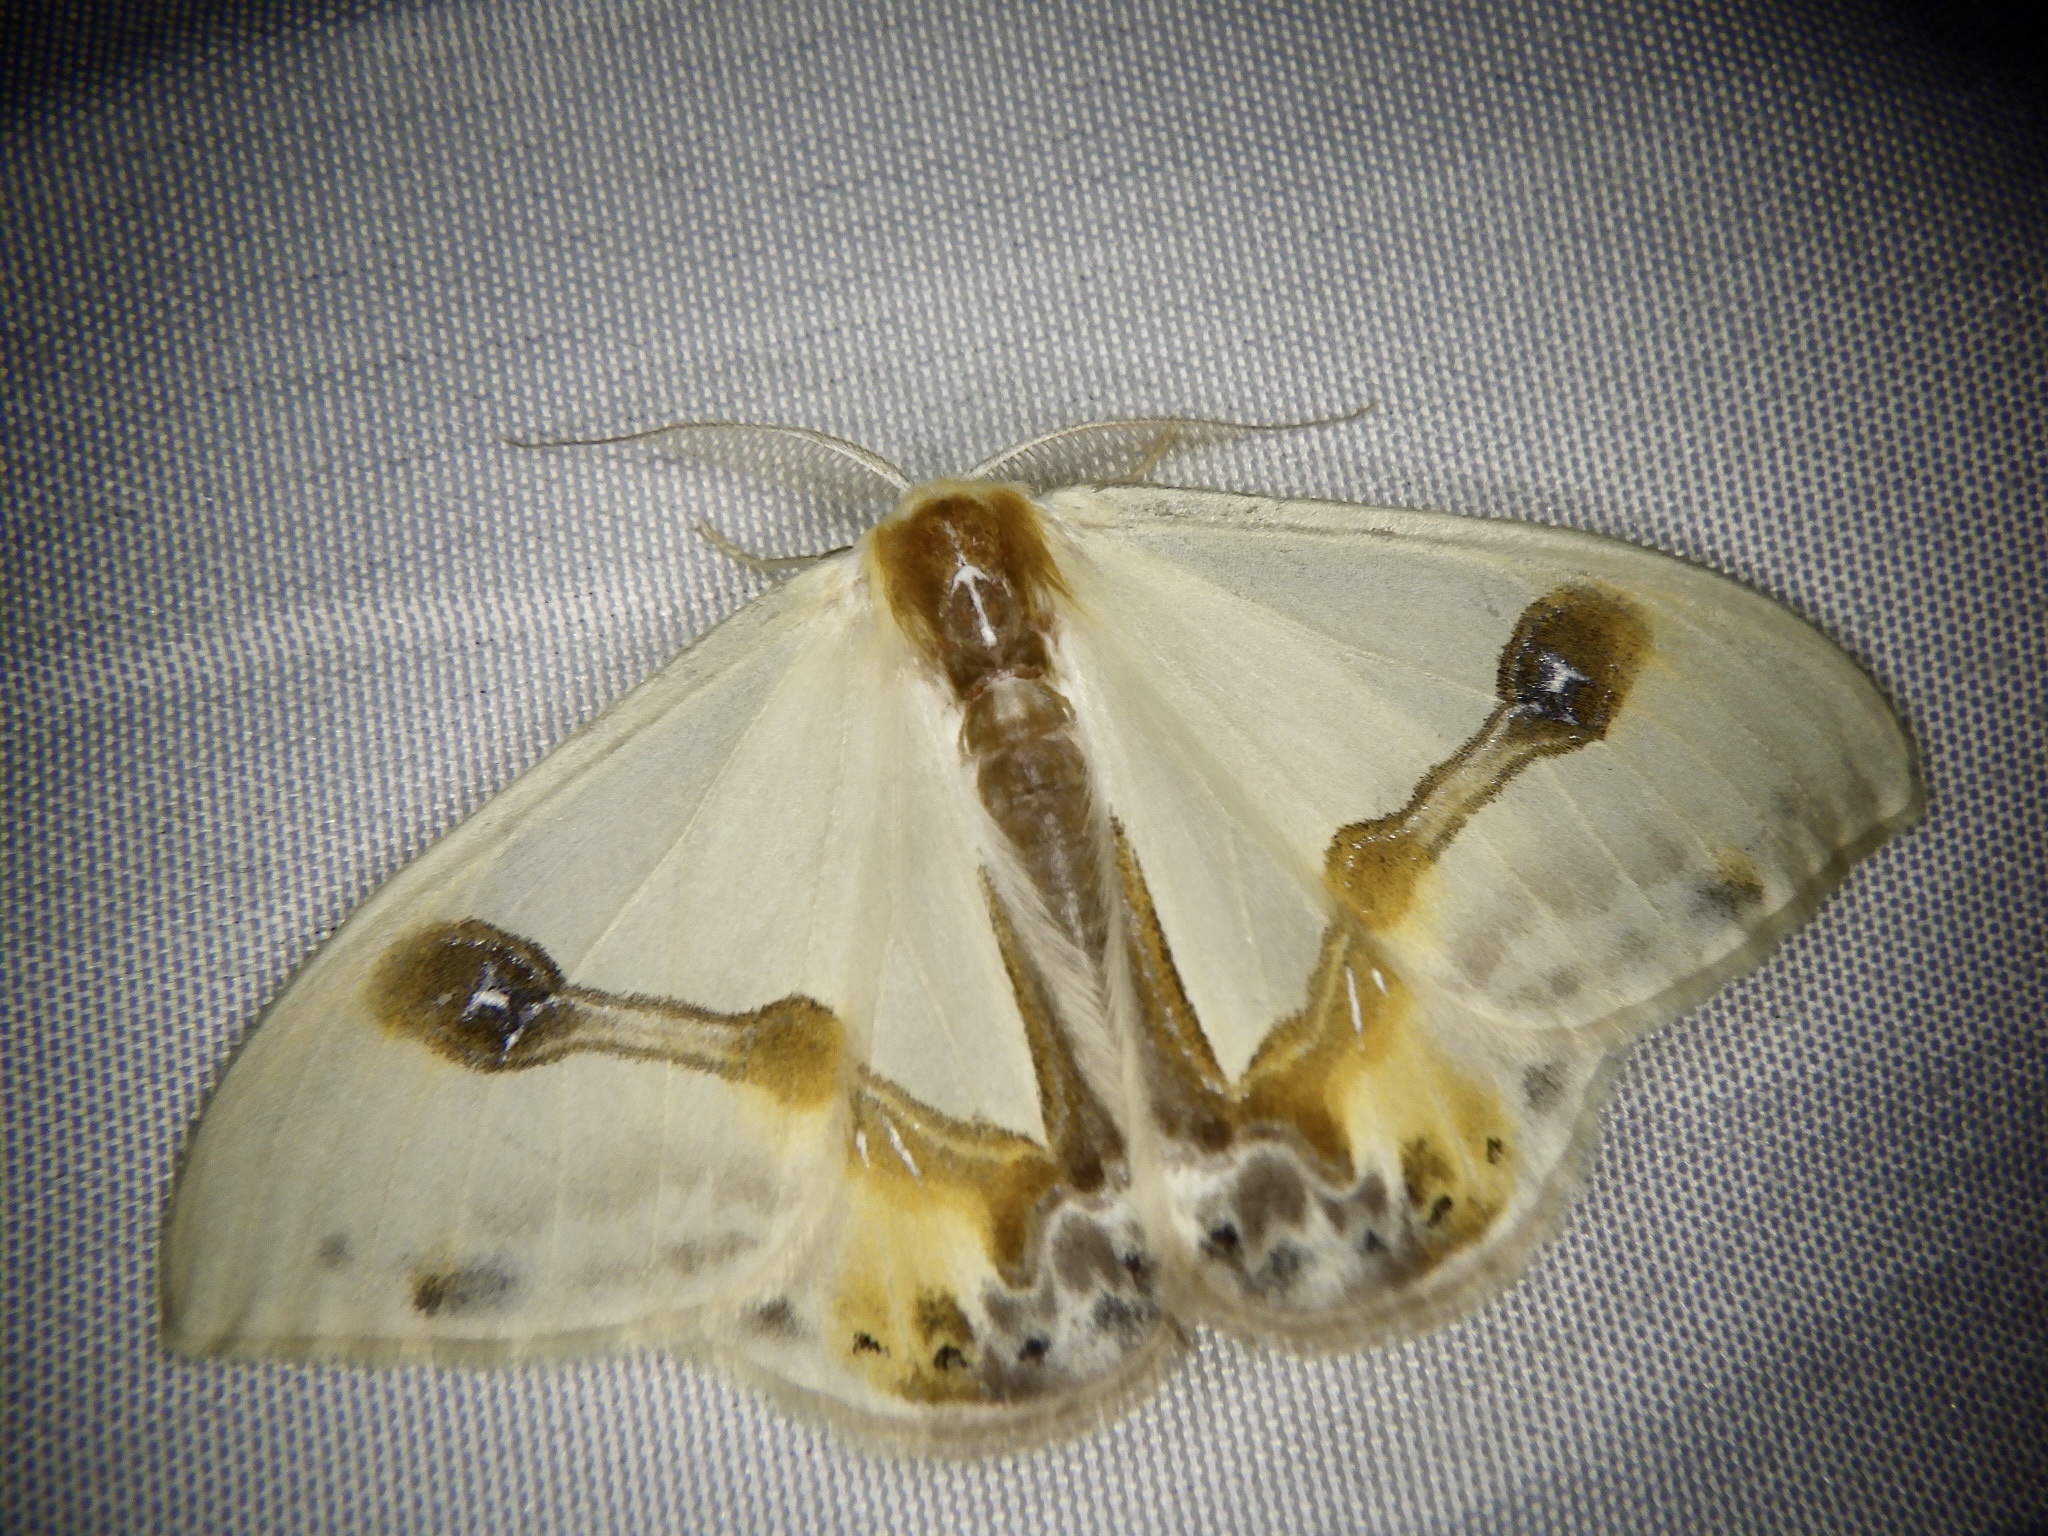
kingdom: Animalia
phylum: Arthropoda
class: Insecta
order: Lepidoptera
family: Drepanidae
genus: Macrocilix
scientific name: Macrocilix mysticata
